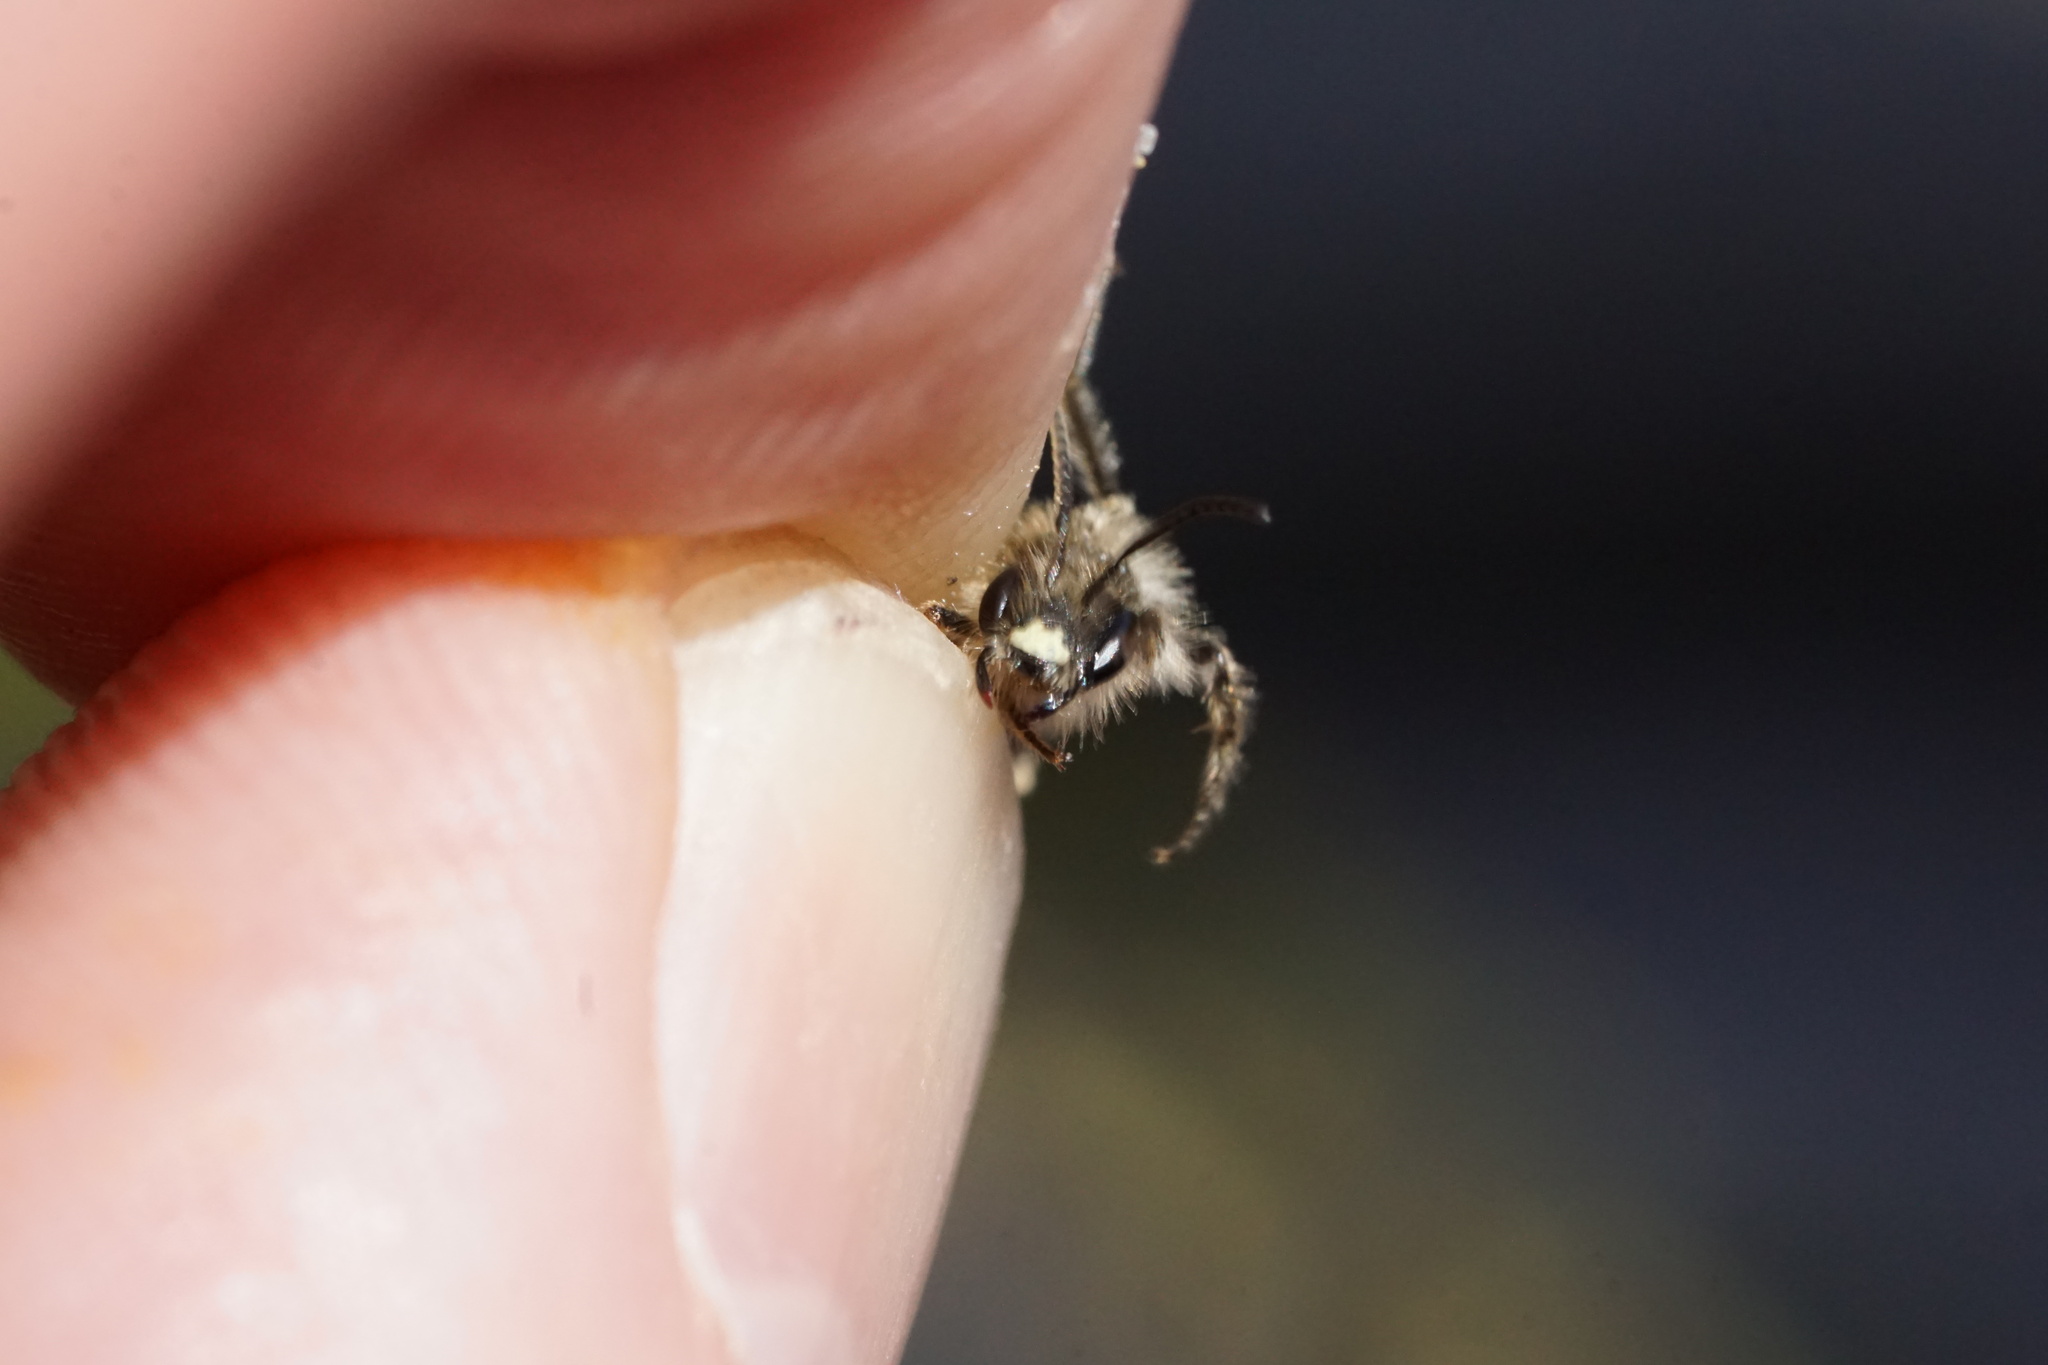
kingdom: Animalia
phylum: Arthropoda
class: Insecta
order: Hymenoptera
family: Andrenidae
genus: Andrena
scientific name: Andrena bradleyi
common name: Bradley's mining bee
